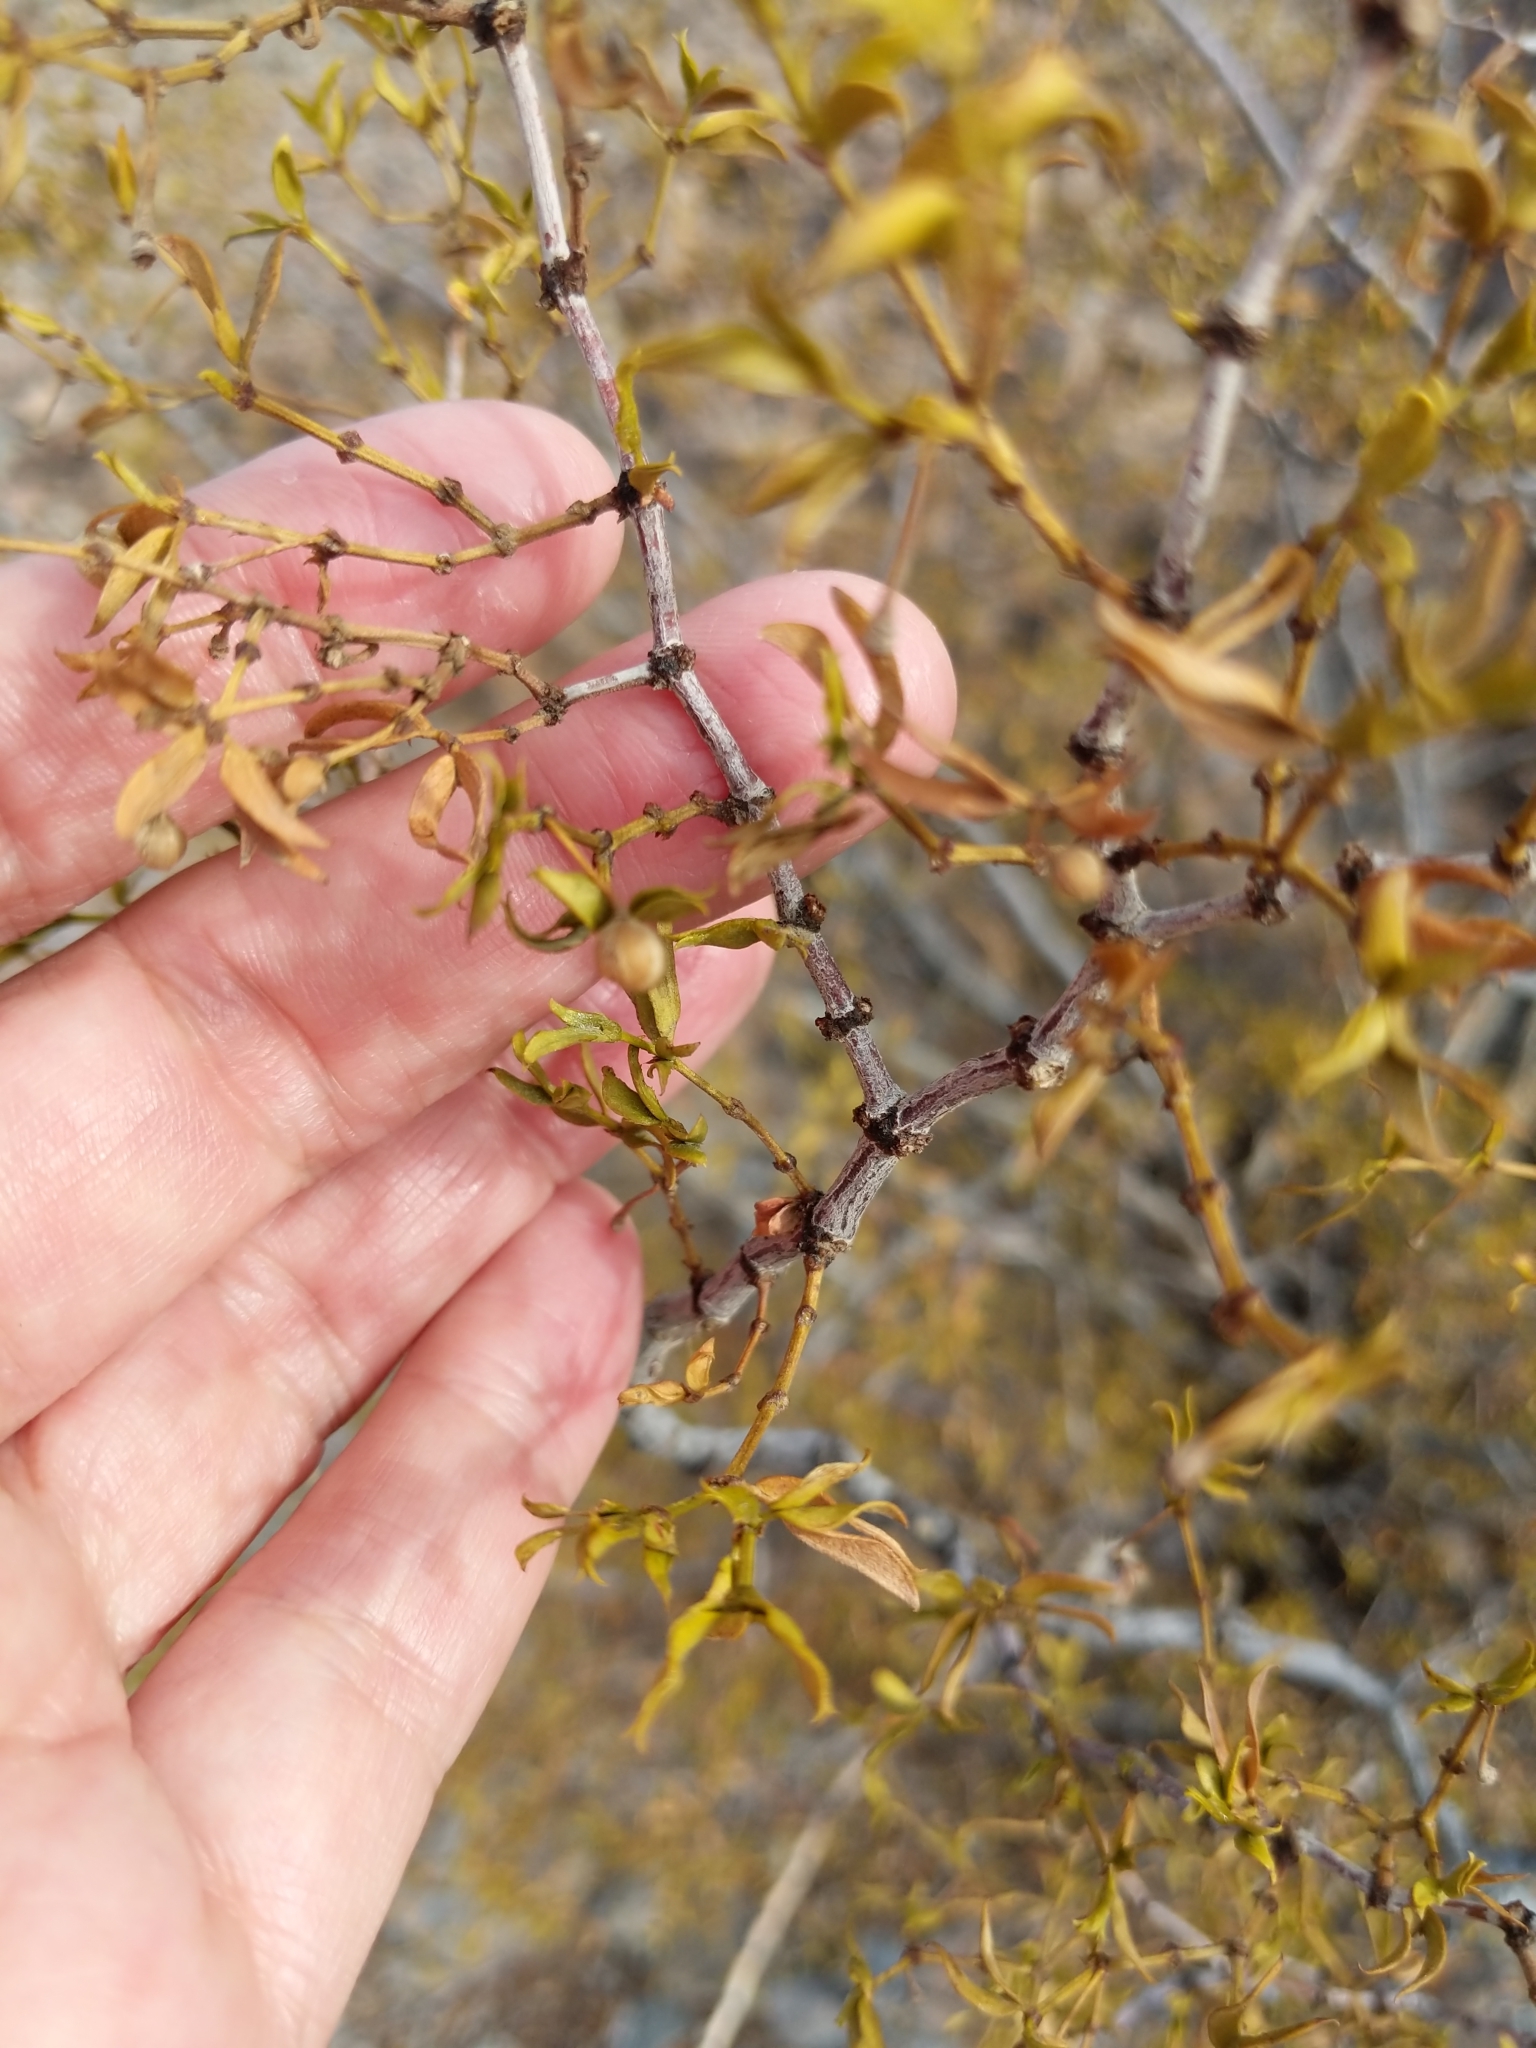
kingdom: Plantae
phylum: Tracheophyta
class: Magnoliopsida
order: Zygophyllales
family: Zygophyllaceae
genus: Larrea
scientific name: Larrea tridentata
